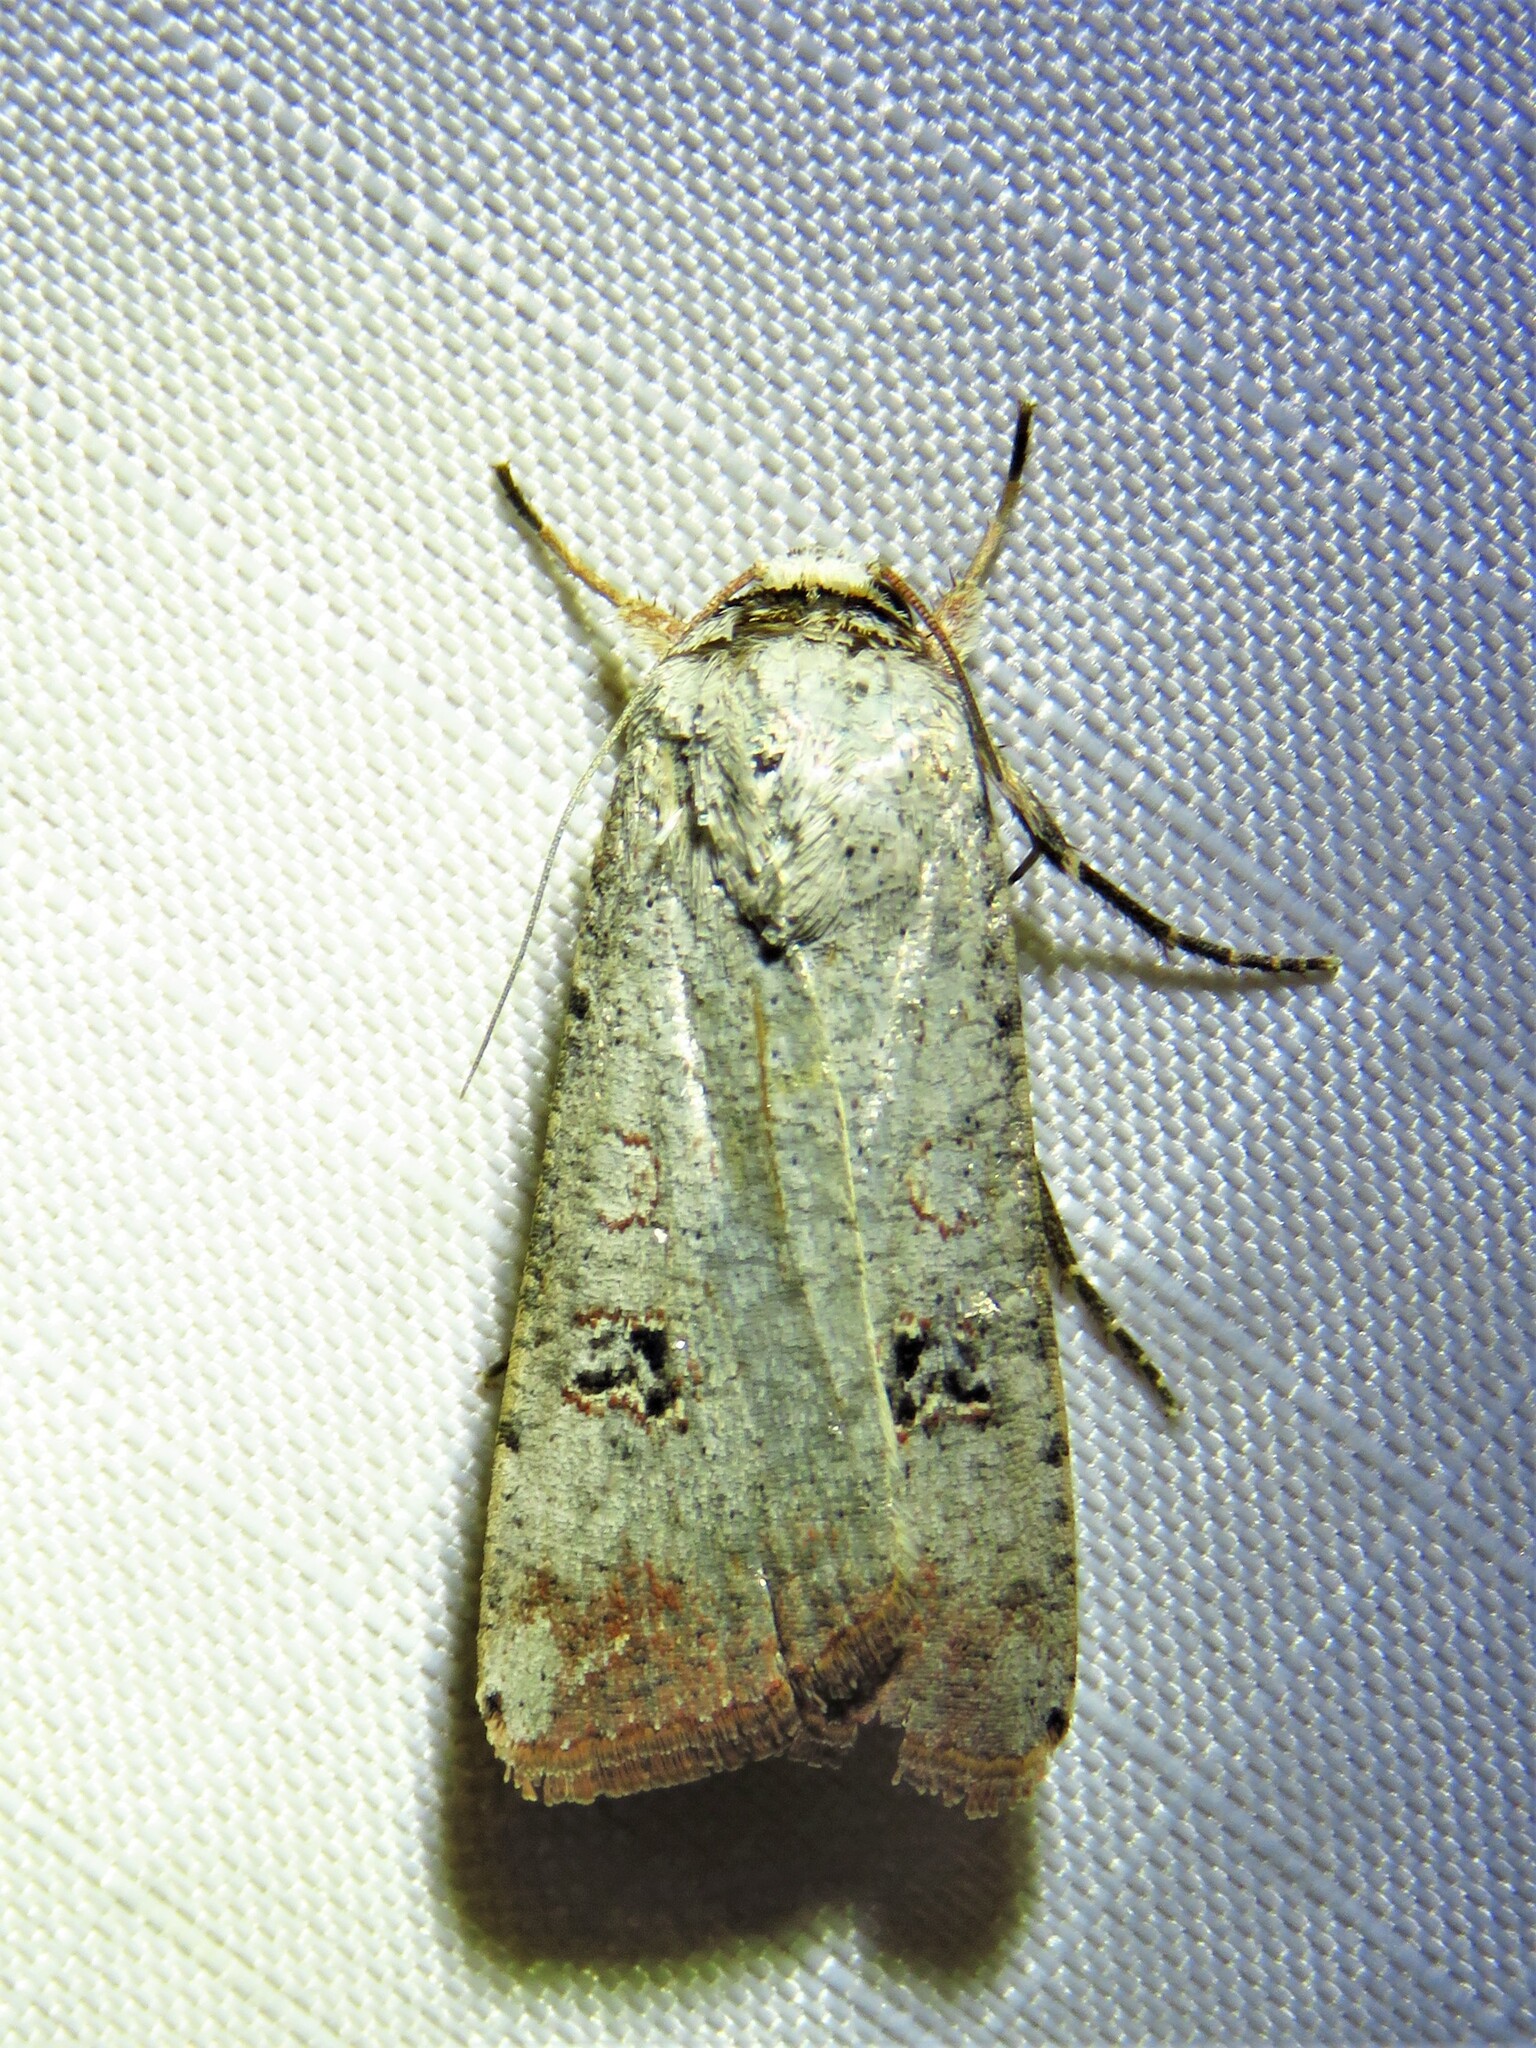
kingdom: Animalia
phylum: Arthropoda
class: Insecta
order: Lepidoptera
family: Noctuidae
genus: Anicla
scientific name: Anicla infecta
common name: Green cutworm
